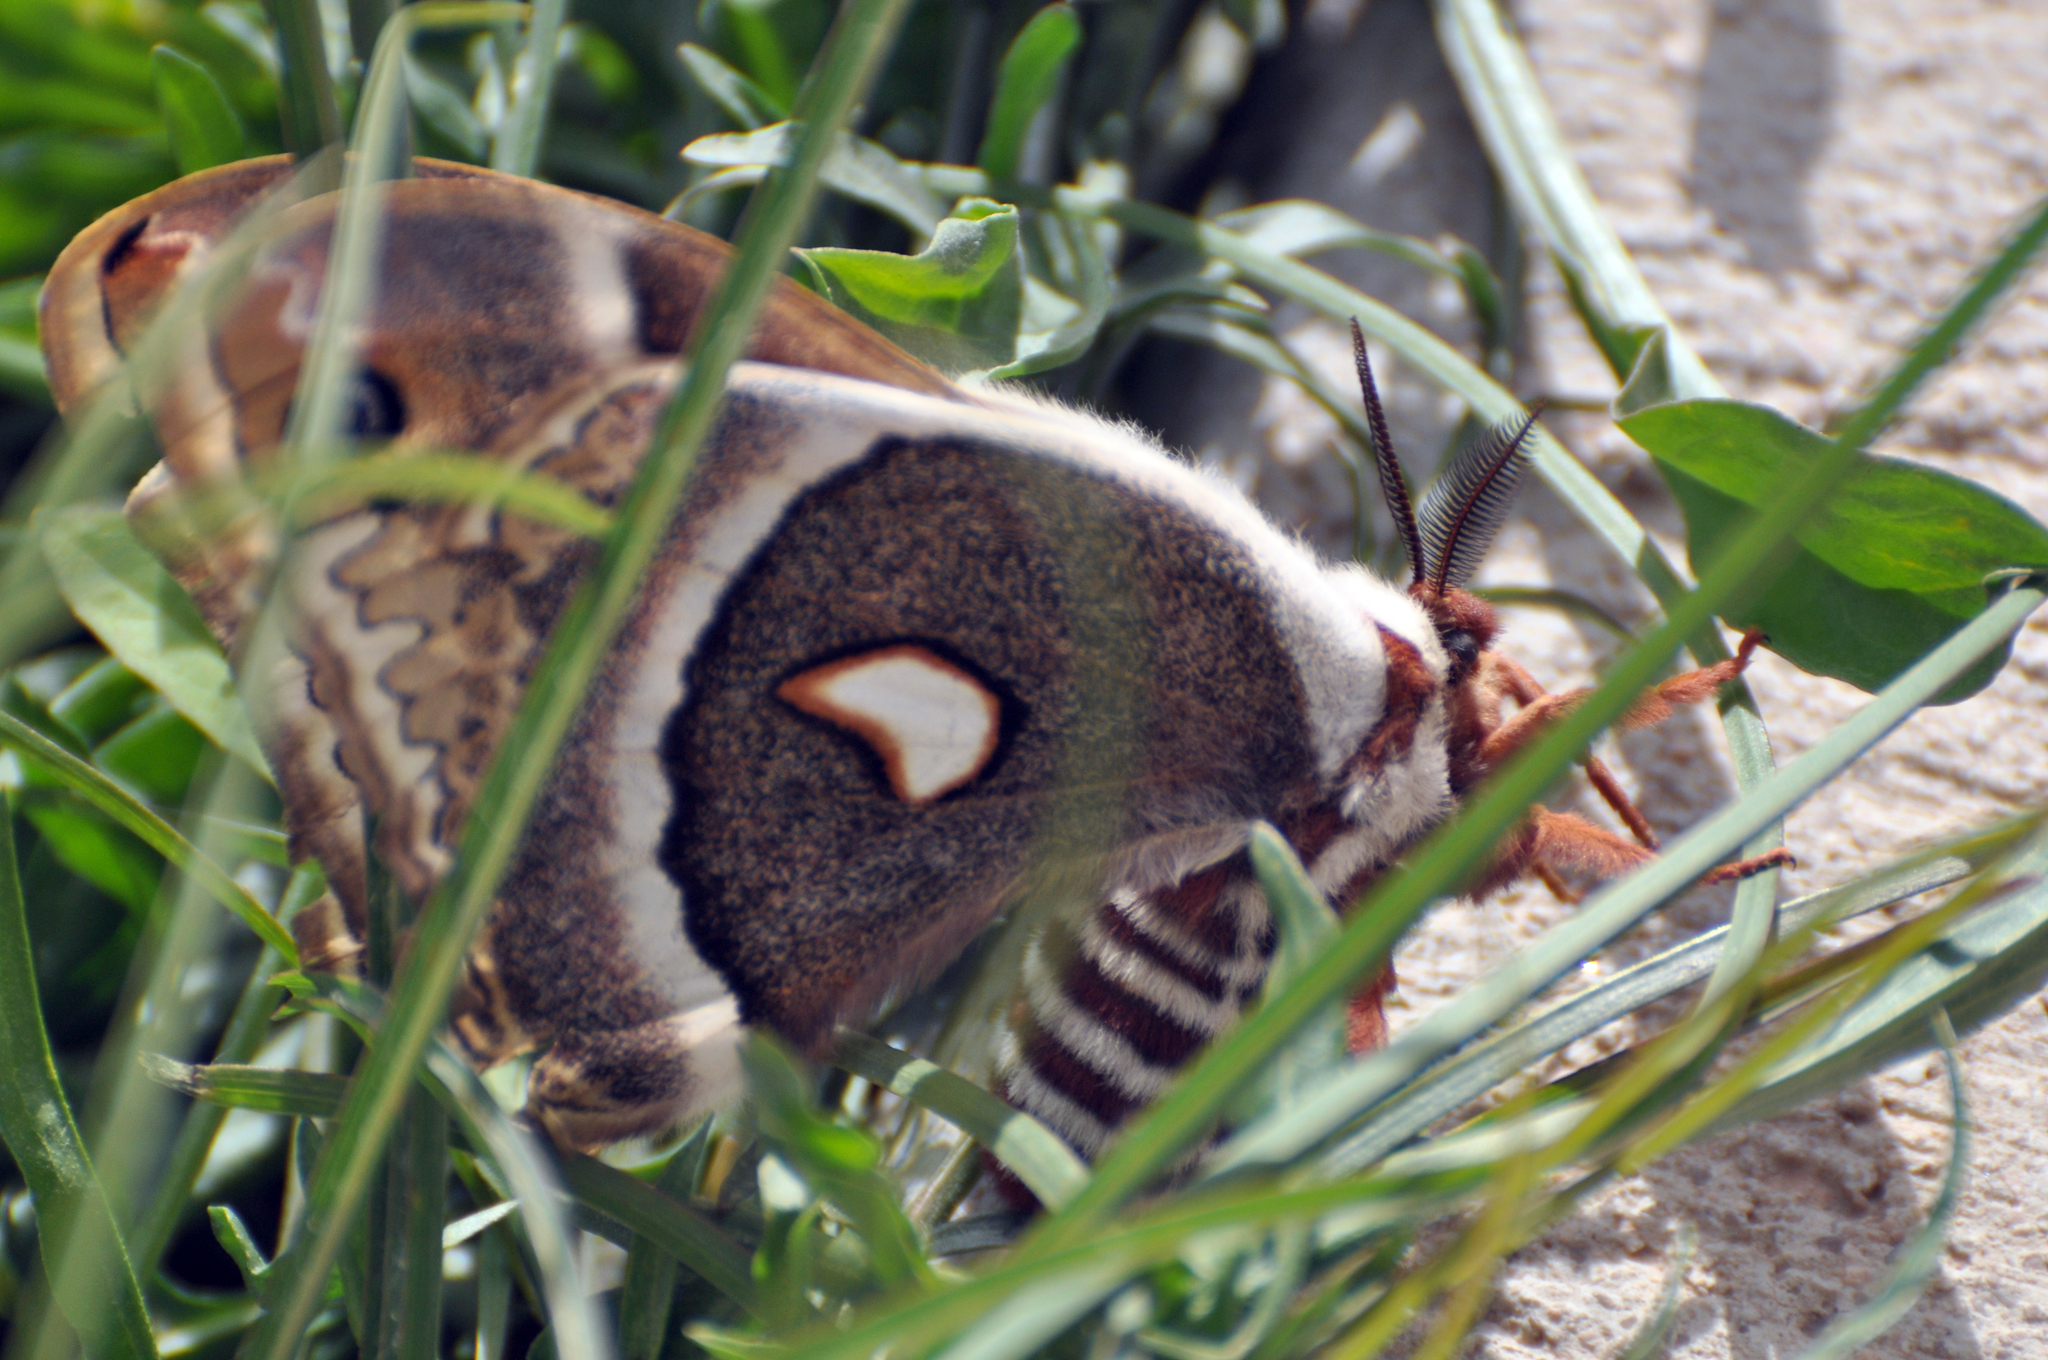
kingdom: Animalia
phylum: Arthropoda
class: Insecta
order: Lepidoptera
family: Saturniidae
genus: Hyalophora
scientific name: Hyalophora gloveri
